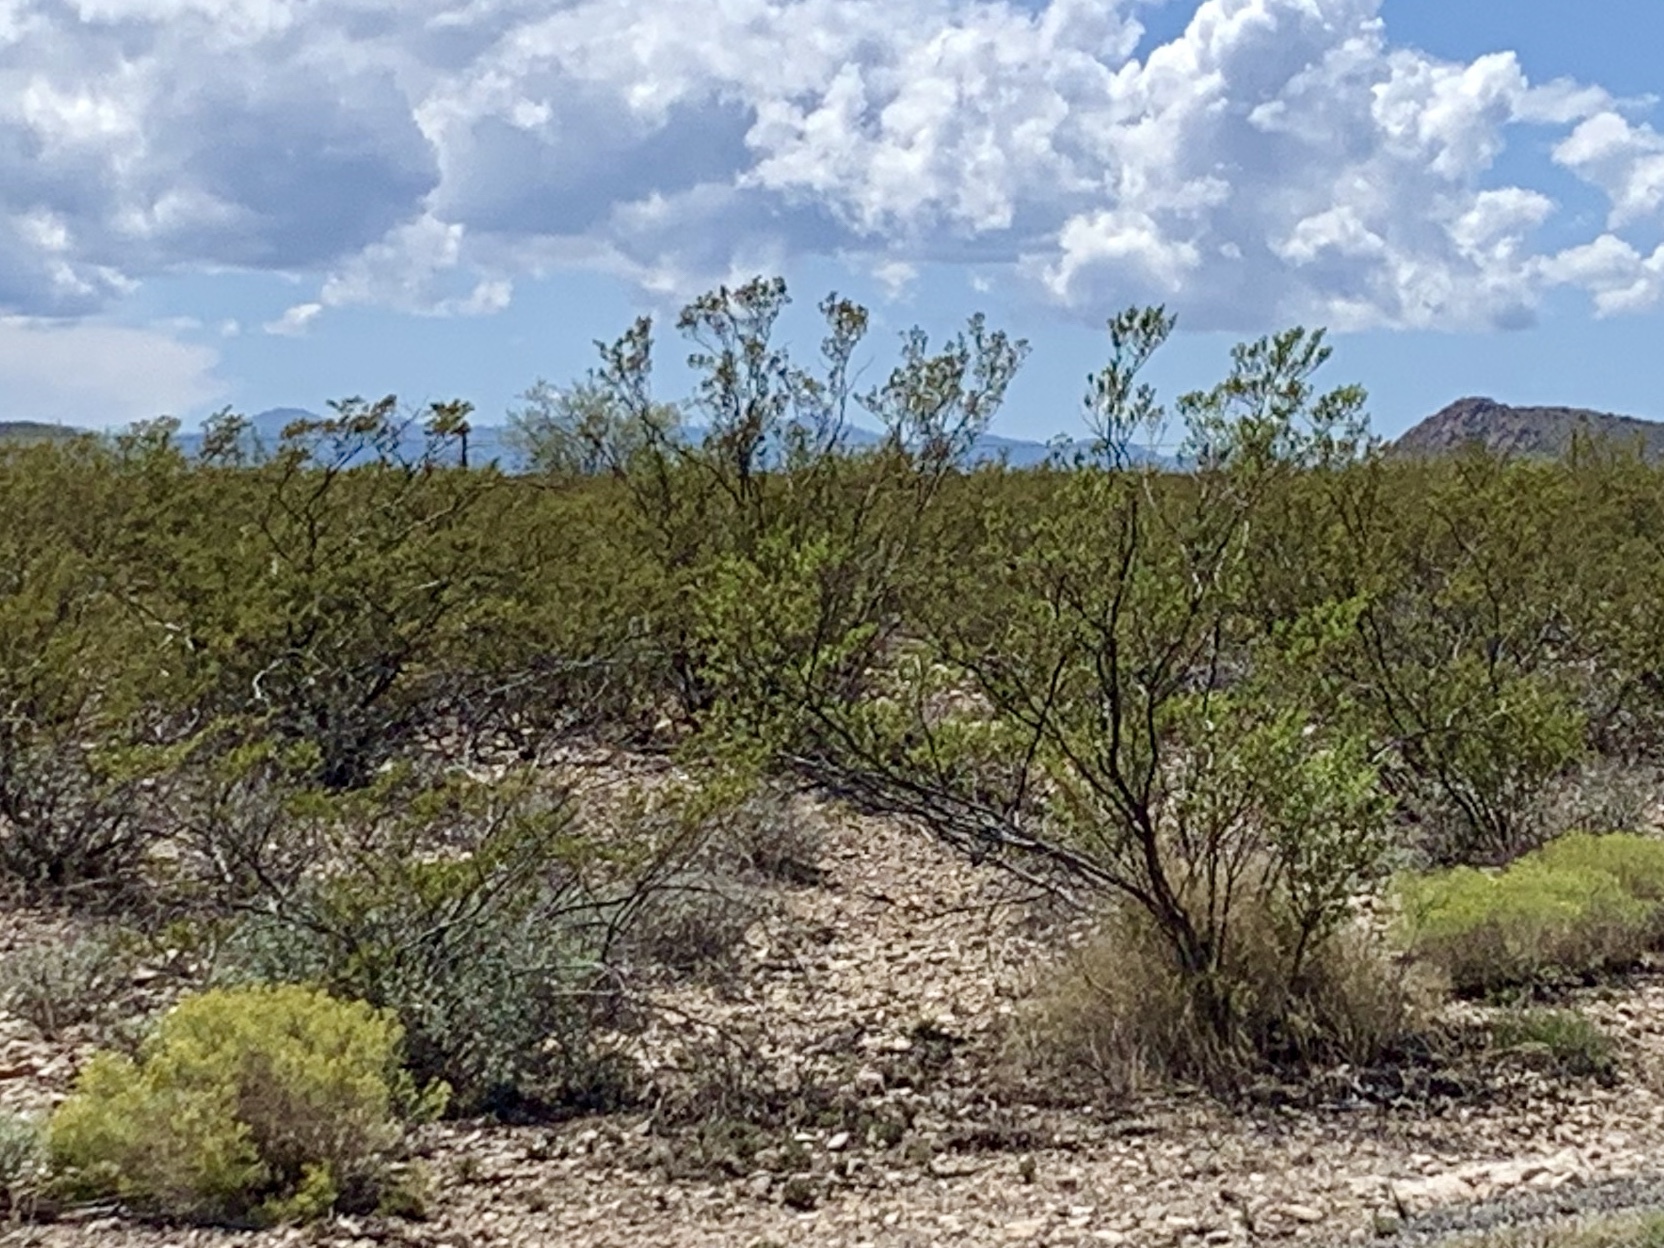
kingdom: Plantae
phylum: Tracheophyta
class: Magnoliopsida
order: Zygophyllales
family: Zygophyllaceae
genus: Larrea
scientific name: Larrea tridentata
